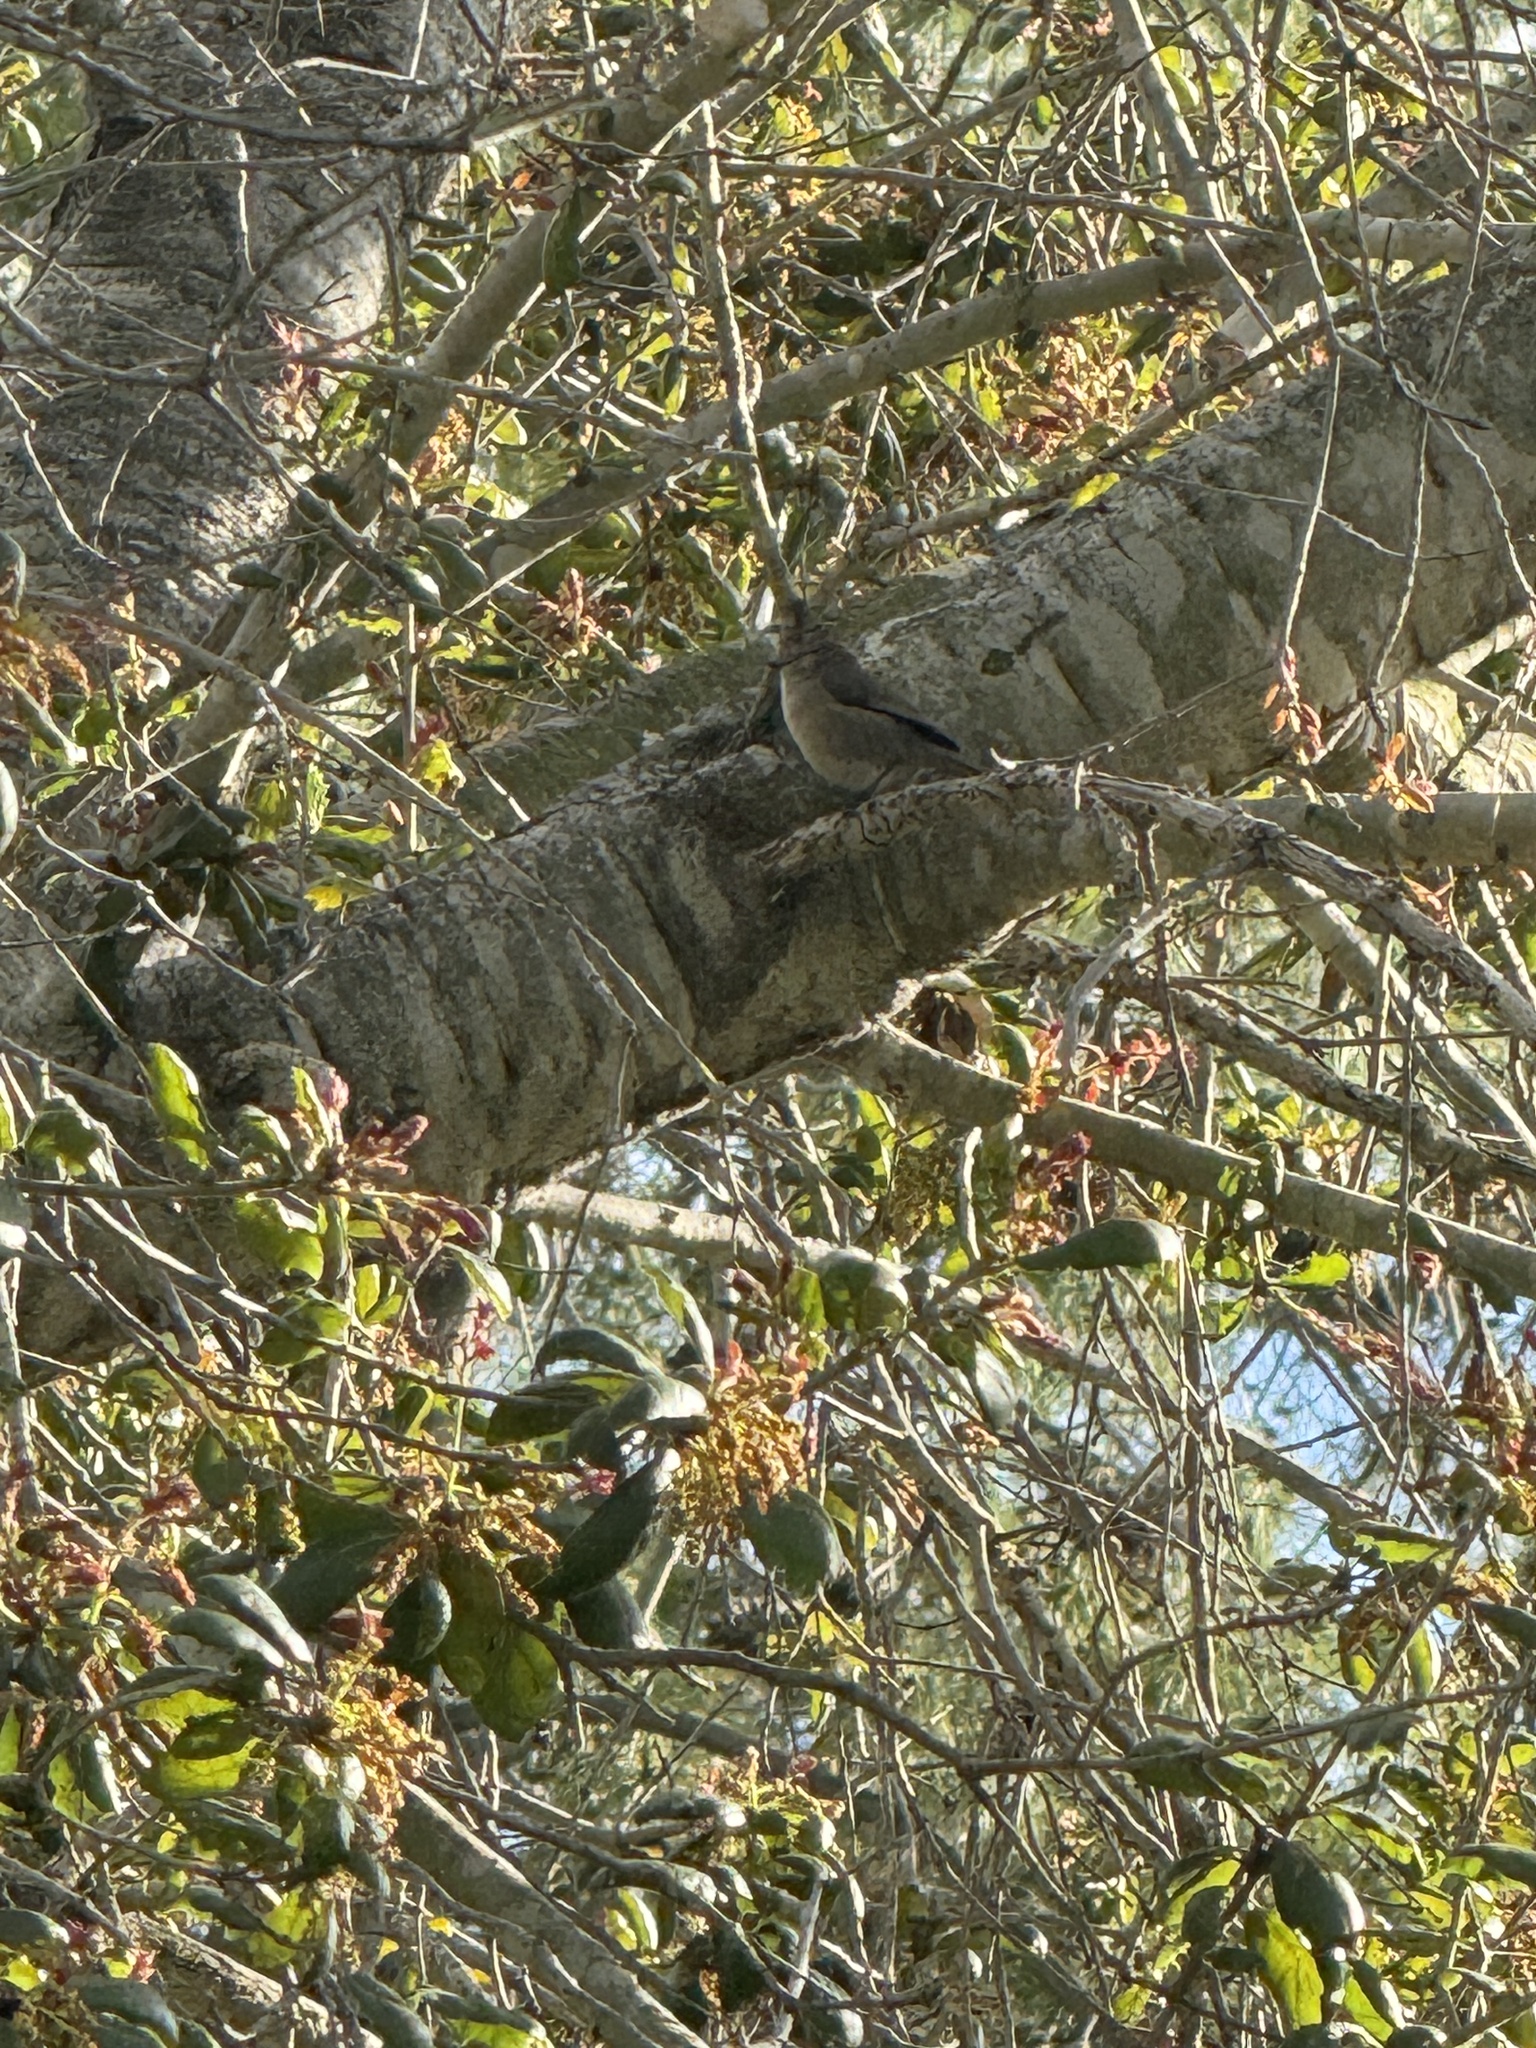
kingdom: Animalia
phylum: Chordata
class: Aves
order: Passeriformes
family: Aegithalidae
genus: Psaltriparus
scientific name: Psaltriparus minimus
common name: American bushtit
